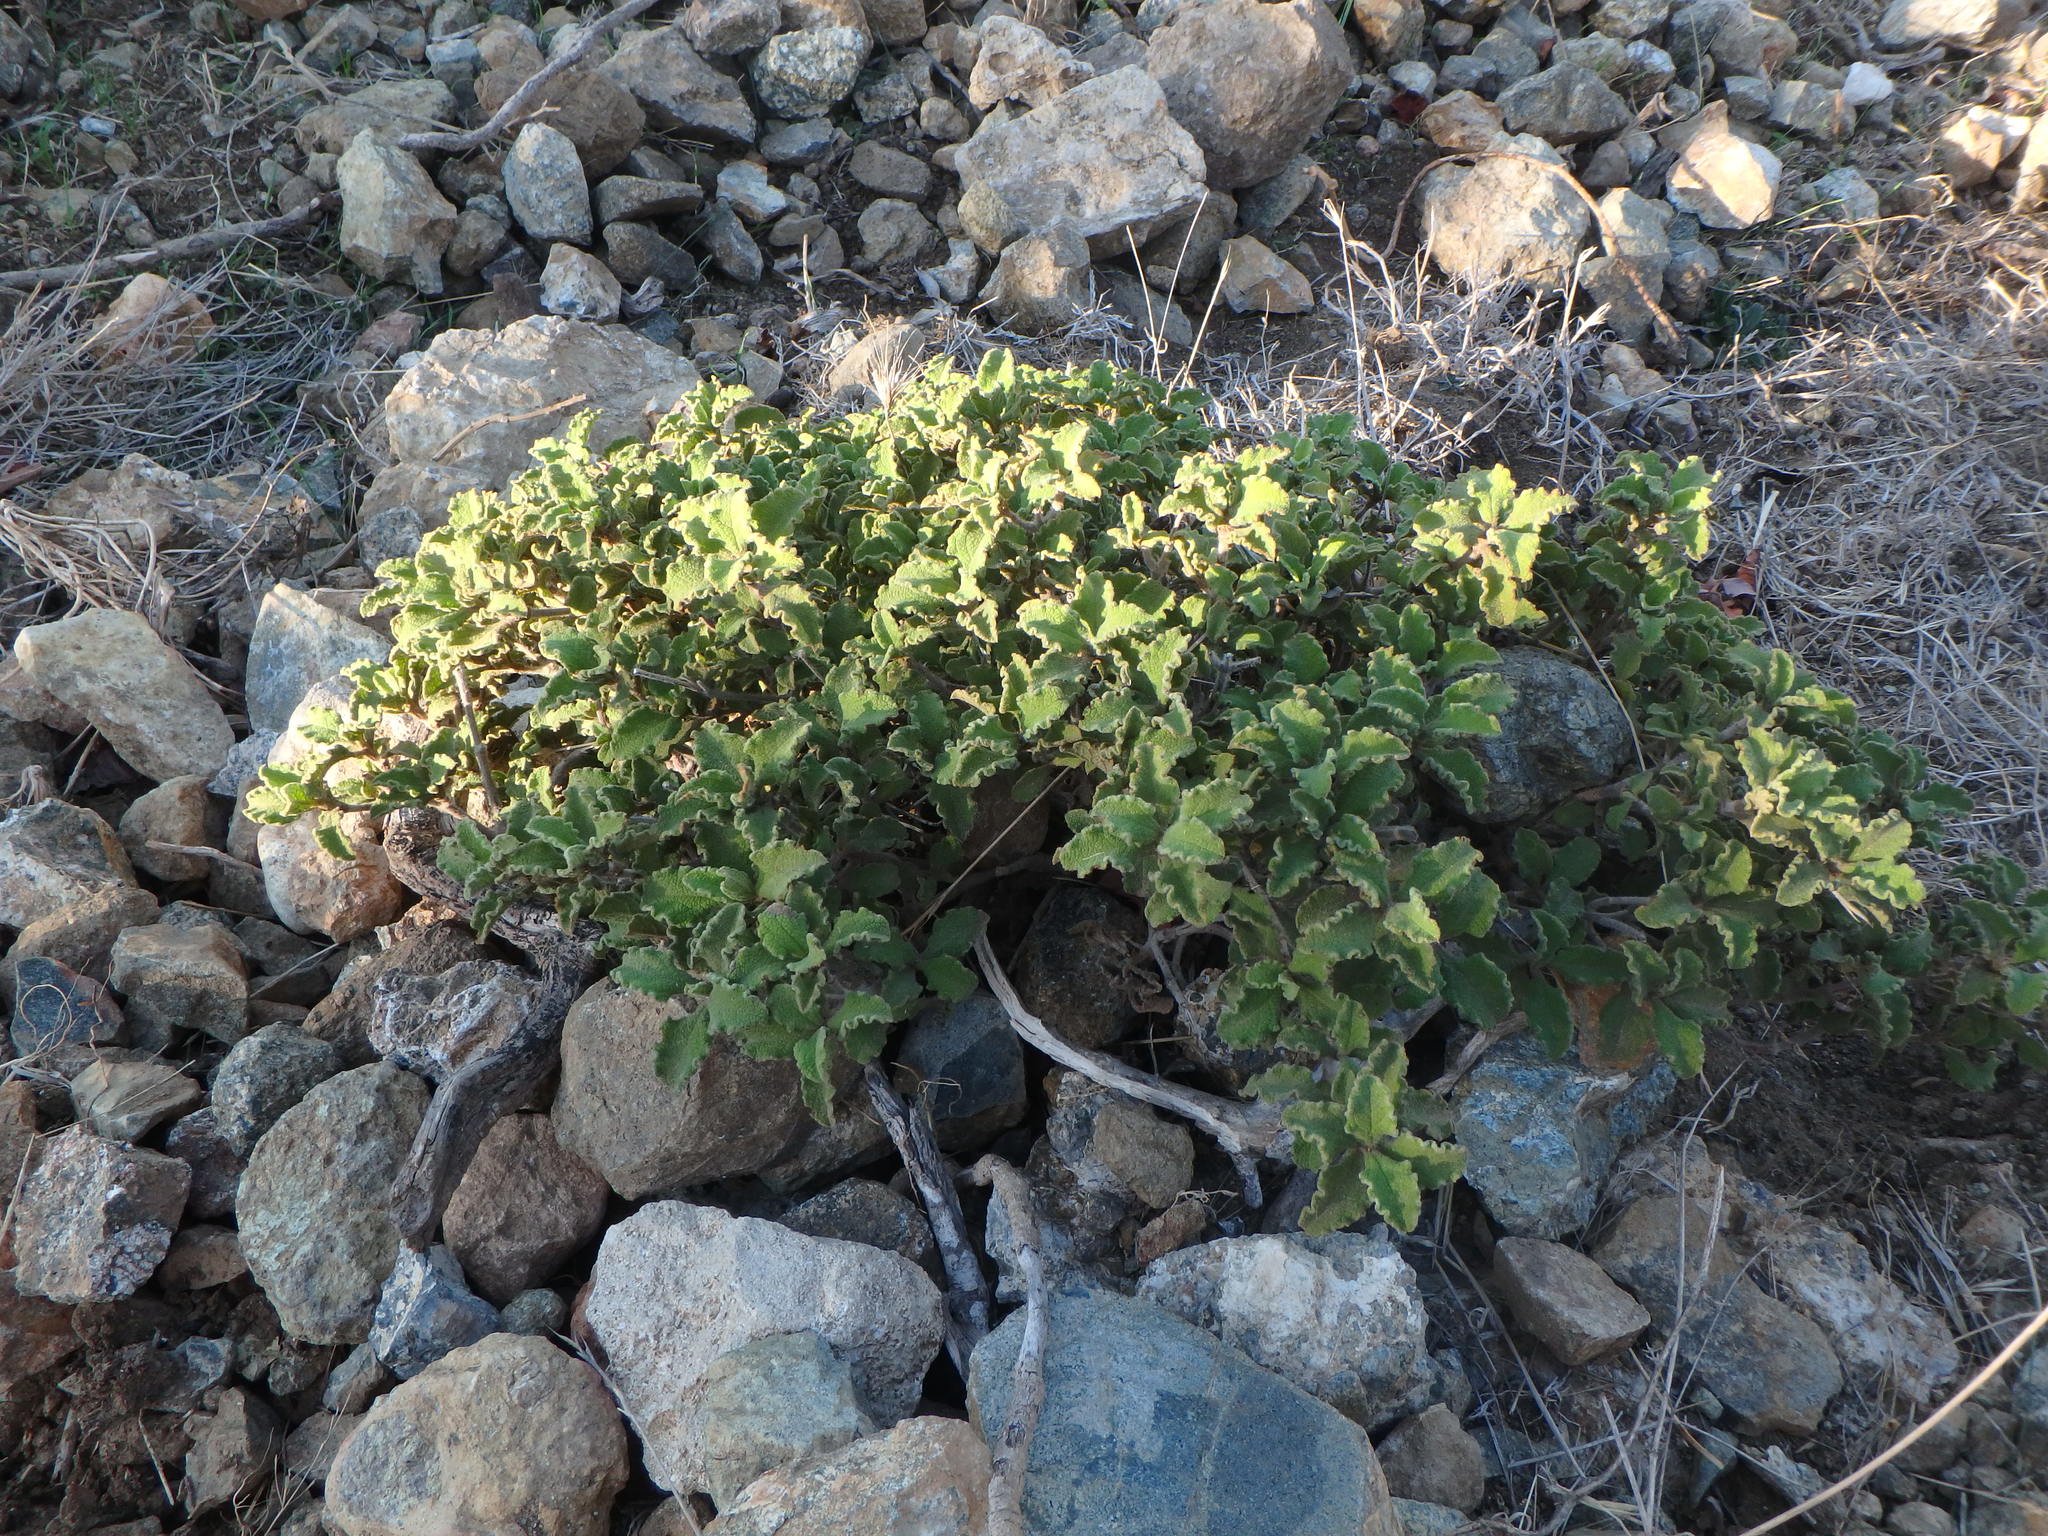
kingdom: Plantae
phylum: Tracheophyta
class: Magnoliopsida
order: Malvales
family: Cistaceae
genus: Cistus
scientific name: Cistus creticus
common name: Cretan rockrose
